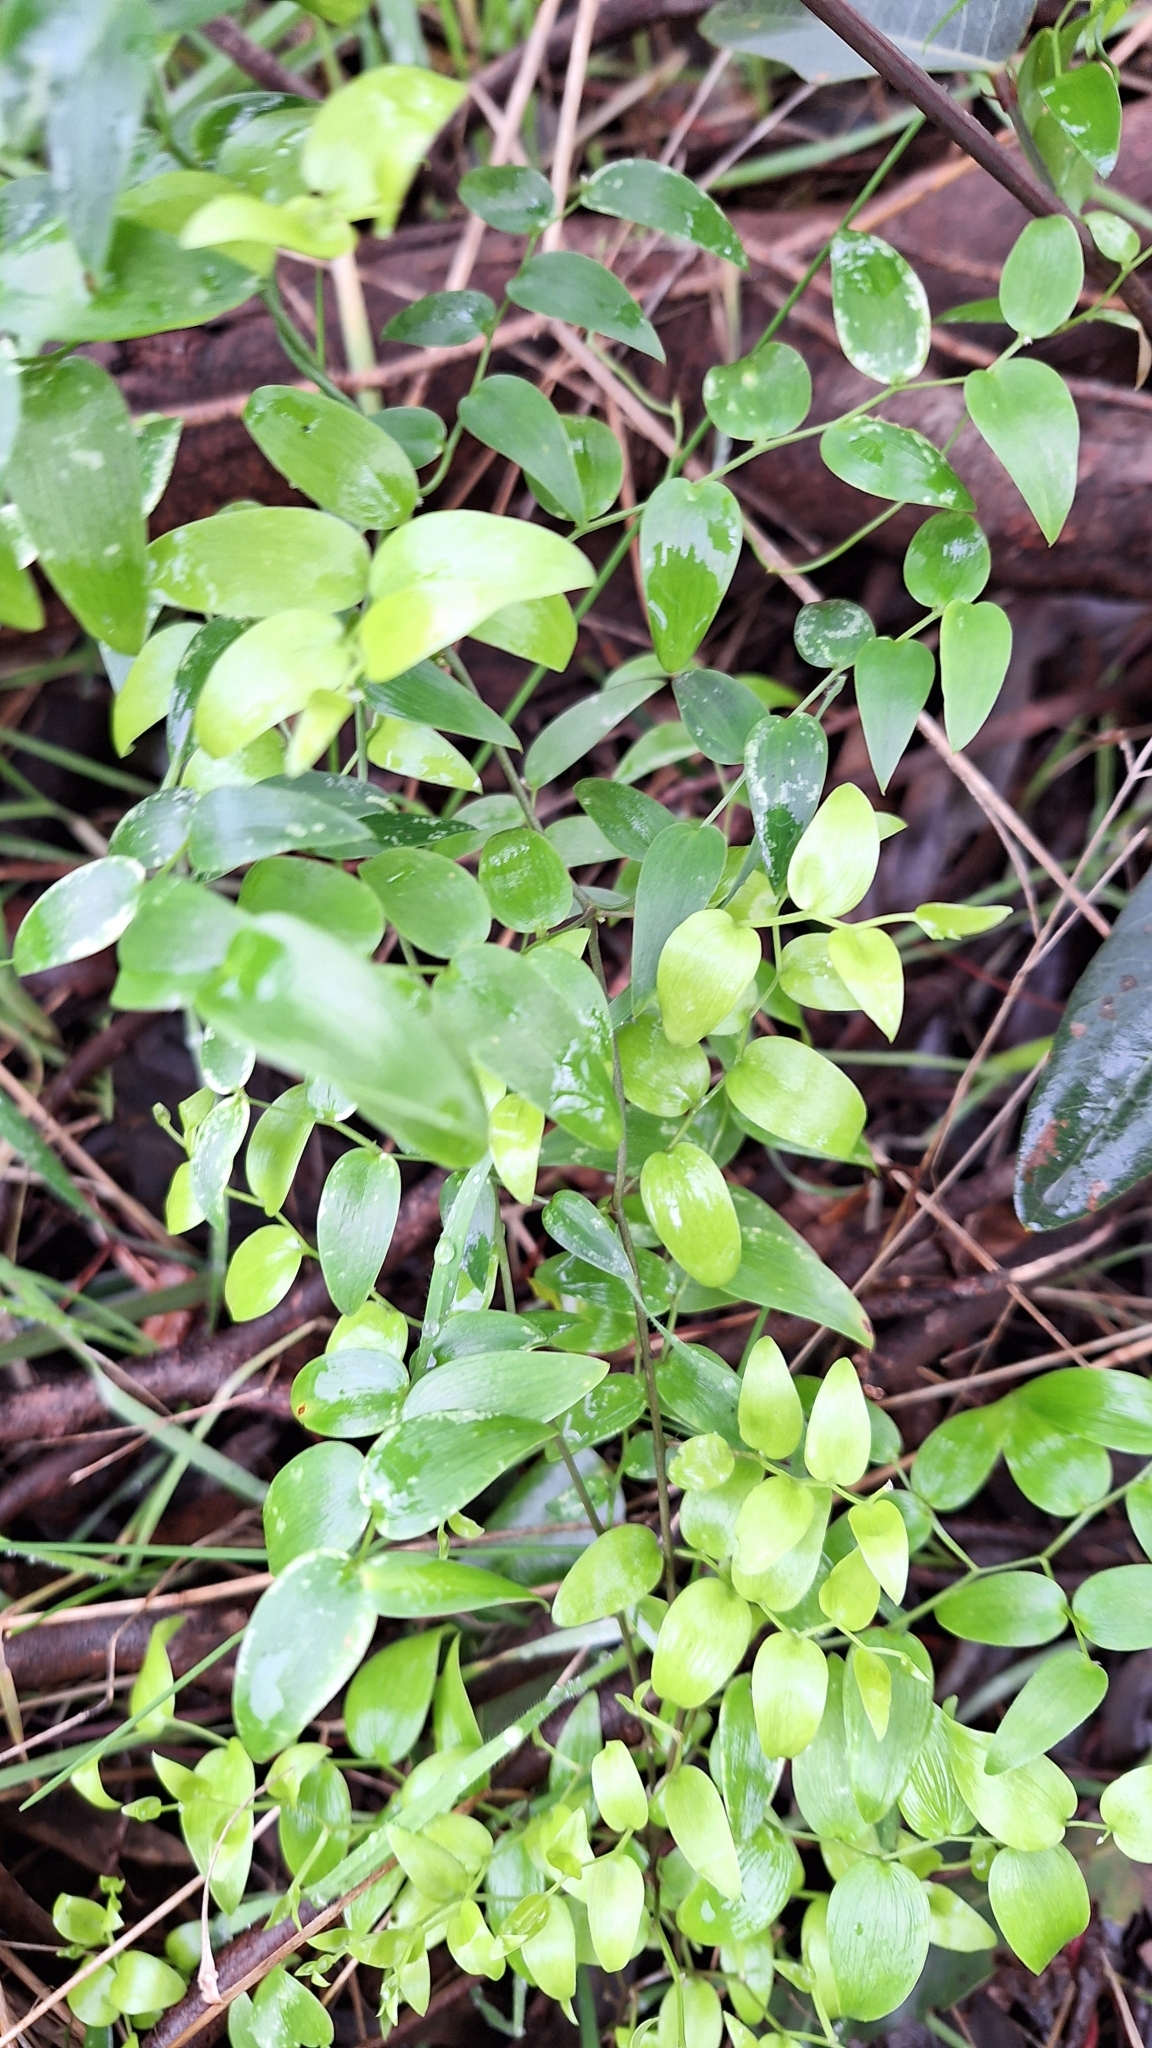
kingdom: Plantae
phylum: Tracheophyta
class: Liliopsida
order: Asparagales
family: Asparagaceae
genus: Asparagus
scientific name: Asparagus asparagoides
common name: African asparagus fern
